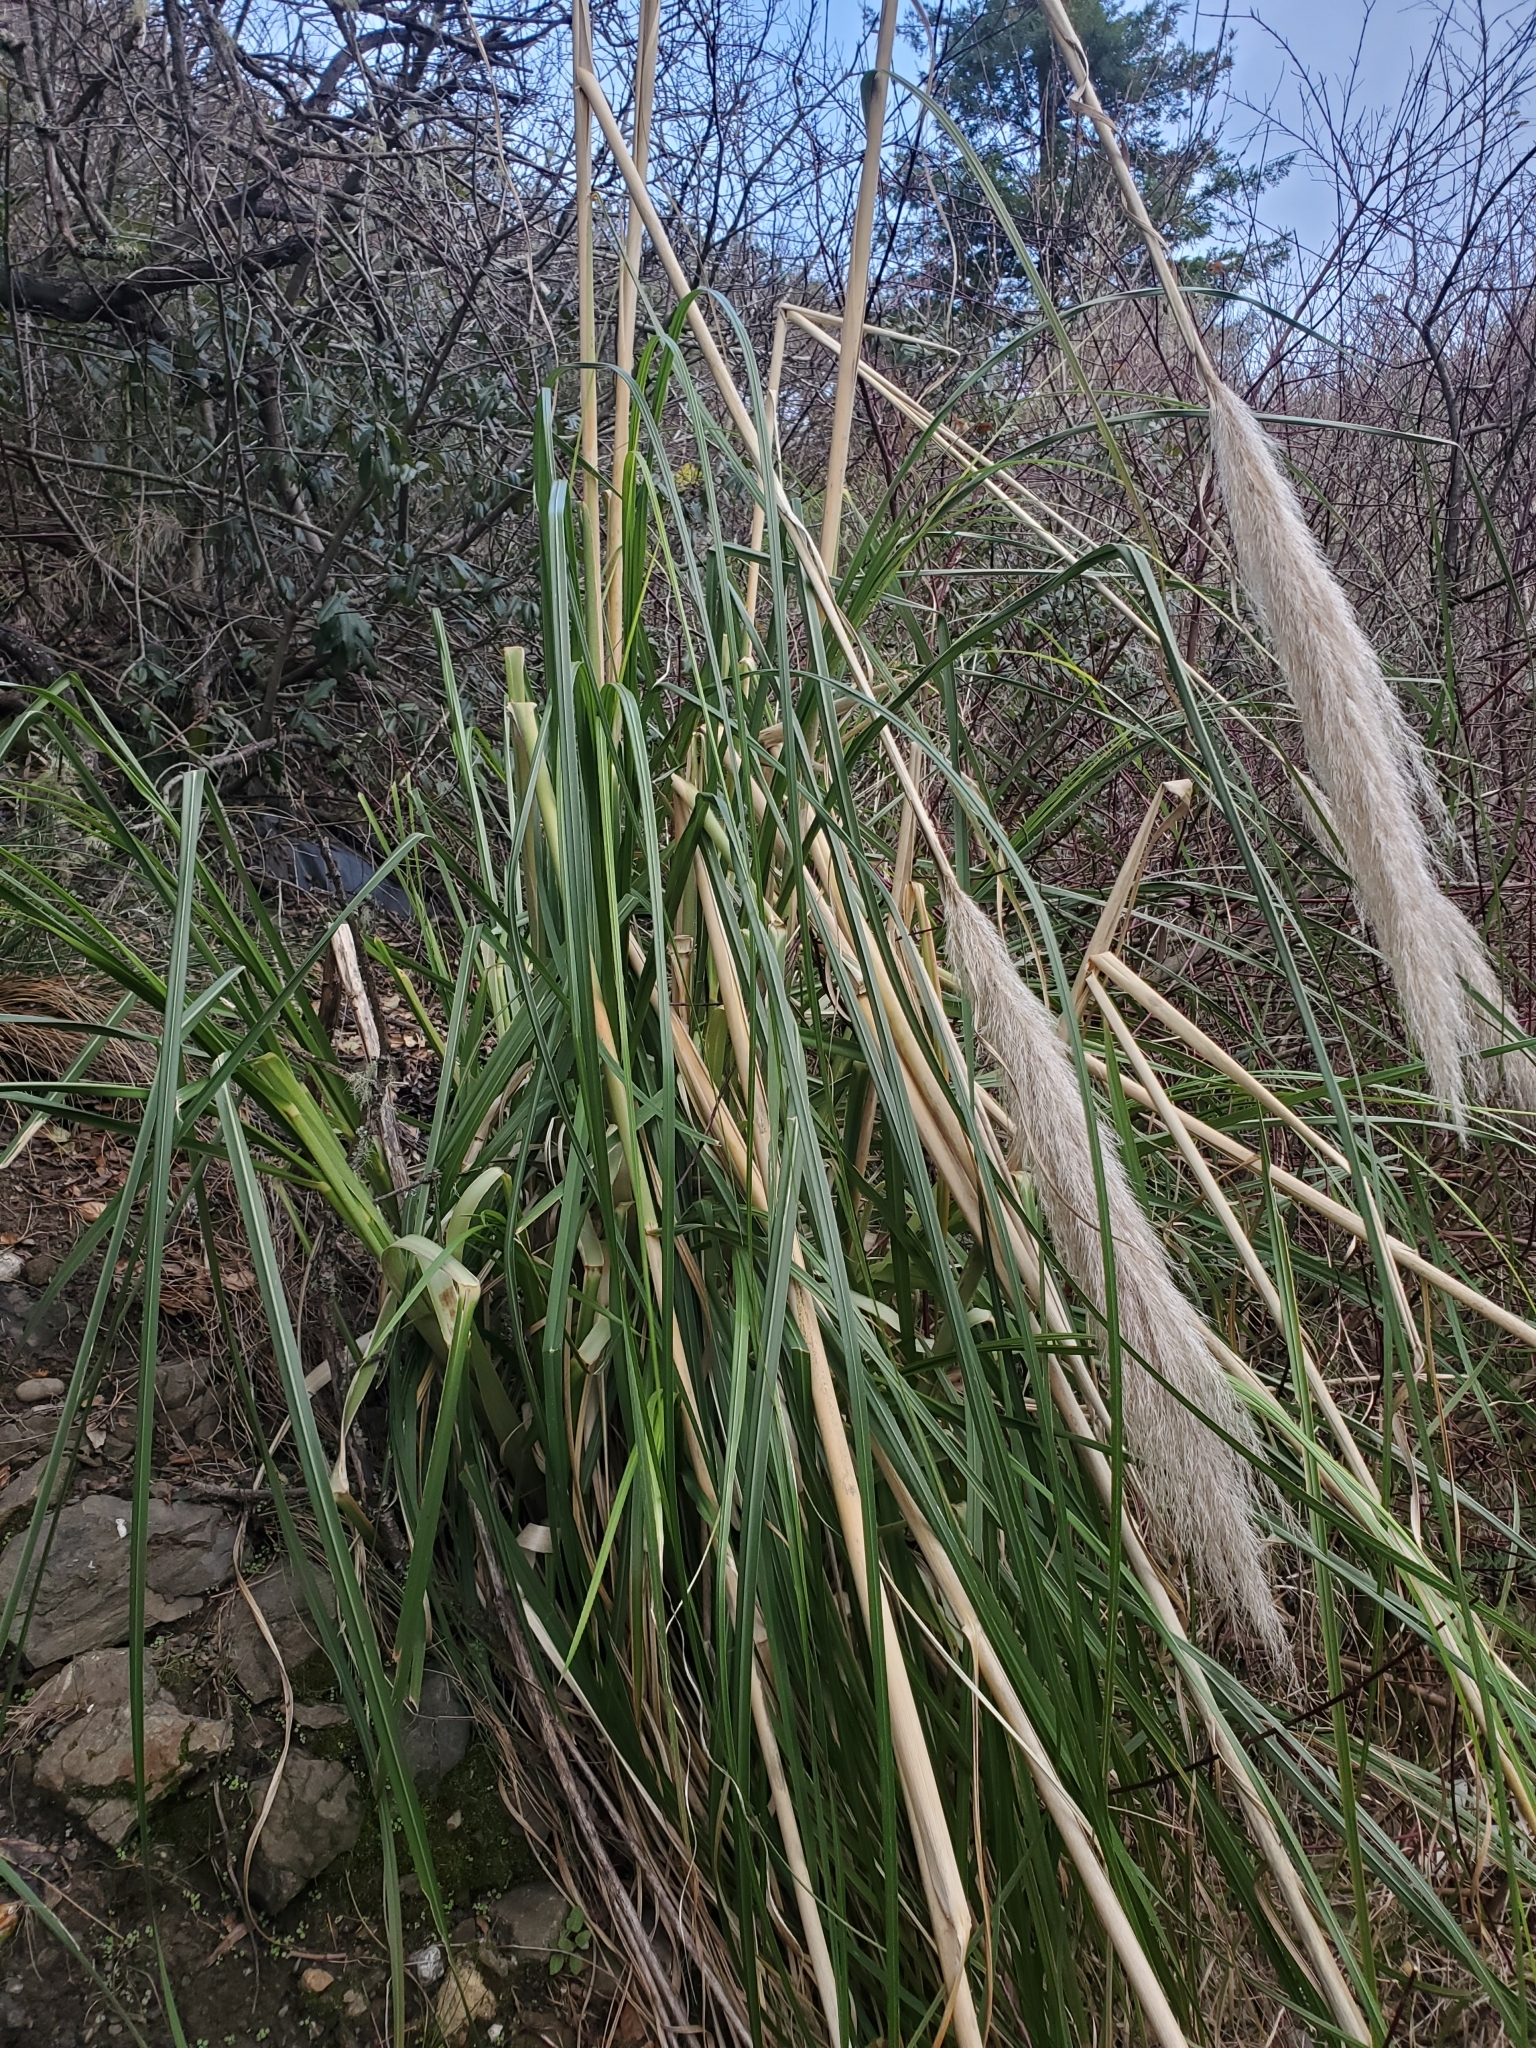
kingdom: Plantae
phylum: Tracheophyta
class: Liliopsida
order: Poales
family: Poaceae
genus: Cortaderia
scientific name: Cortaderia selloana
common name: Uruguayan pampas grass
